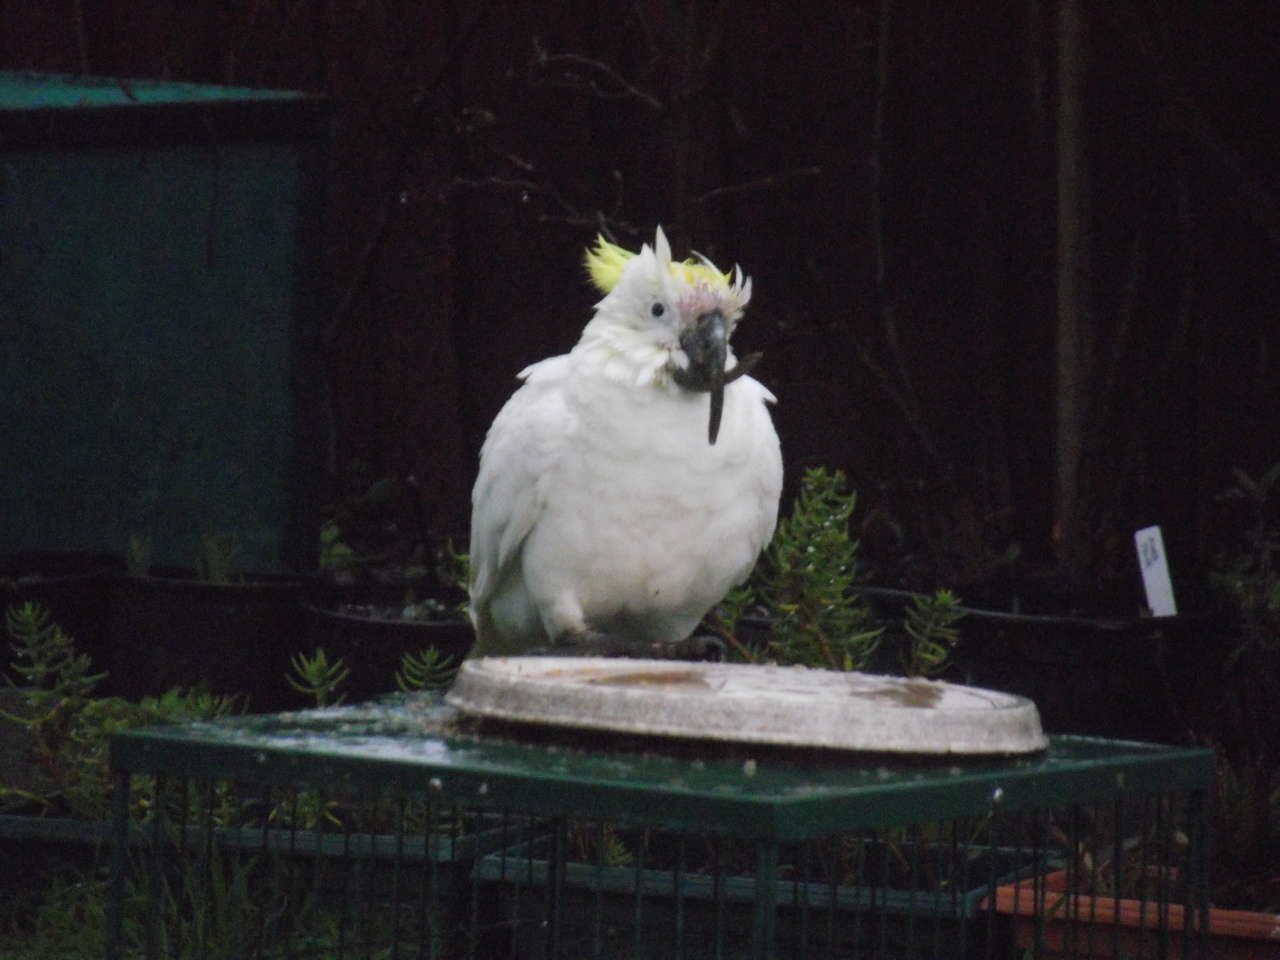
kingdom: Animalia
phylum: Chordata
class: Aves
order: Psittaciformes
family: Psittacidae
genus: Cacatua
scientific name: Cacatua galerita
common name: Sulphur-crested cockatoo
